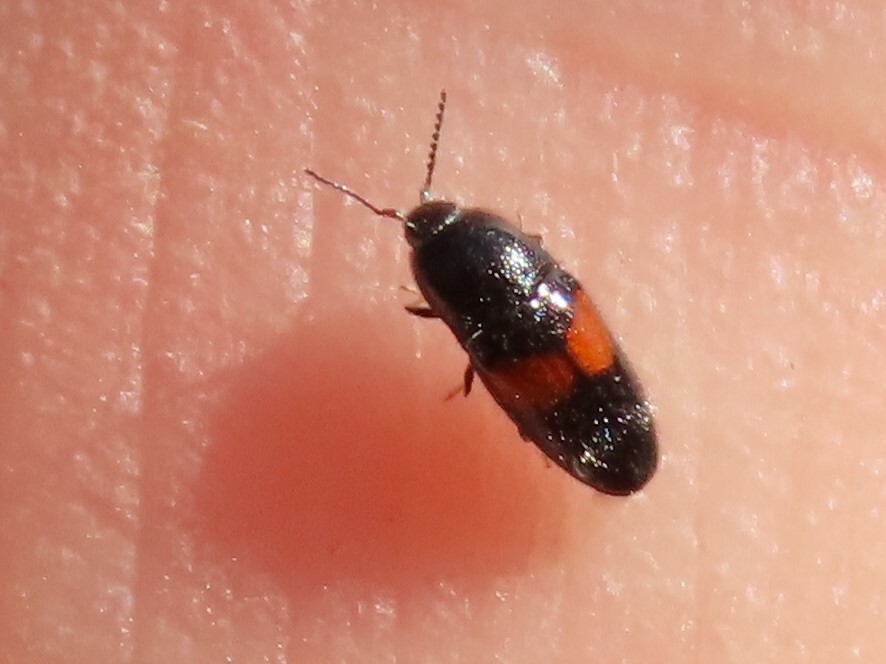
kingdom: Animalia
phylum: Arthropoda
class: Insecta
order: Coleoptera
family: Elateridae
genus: Drapetes
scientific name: Drapetes exstriatus
